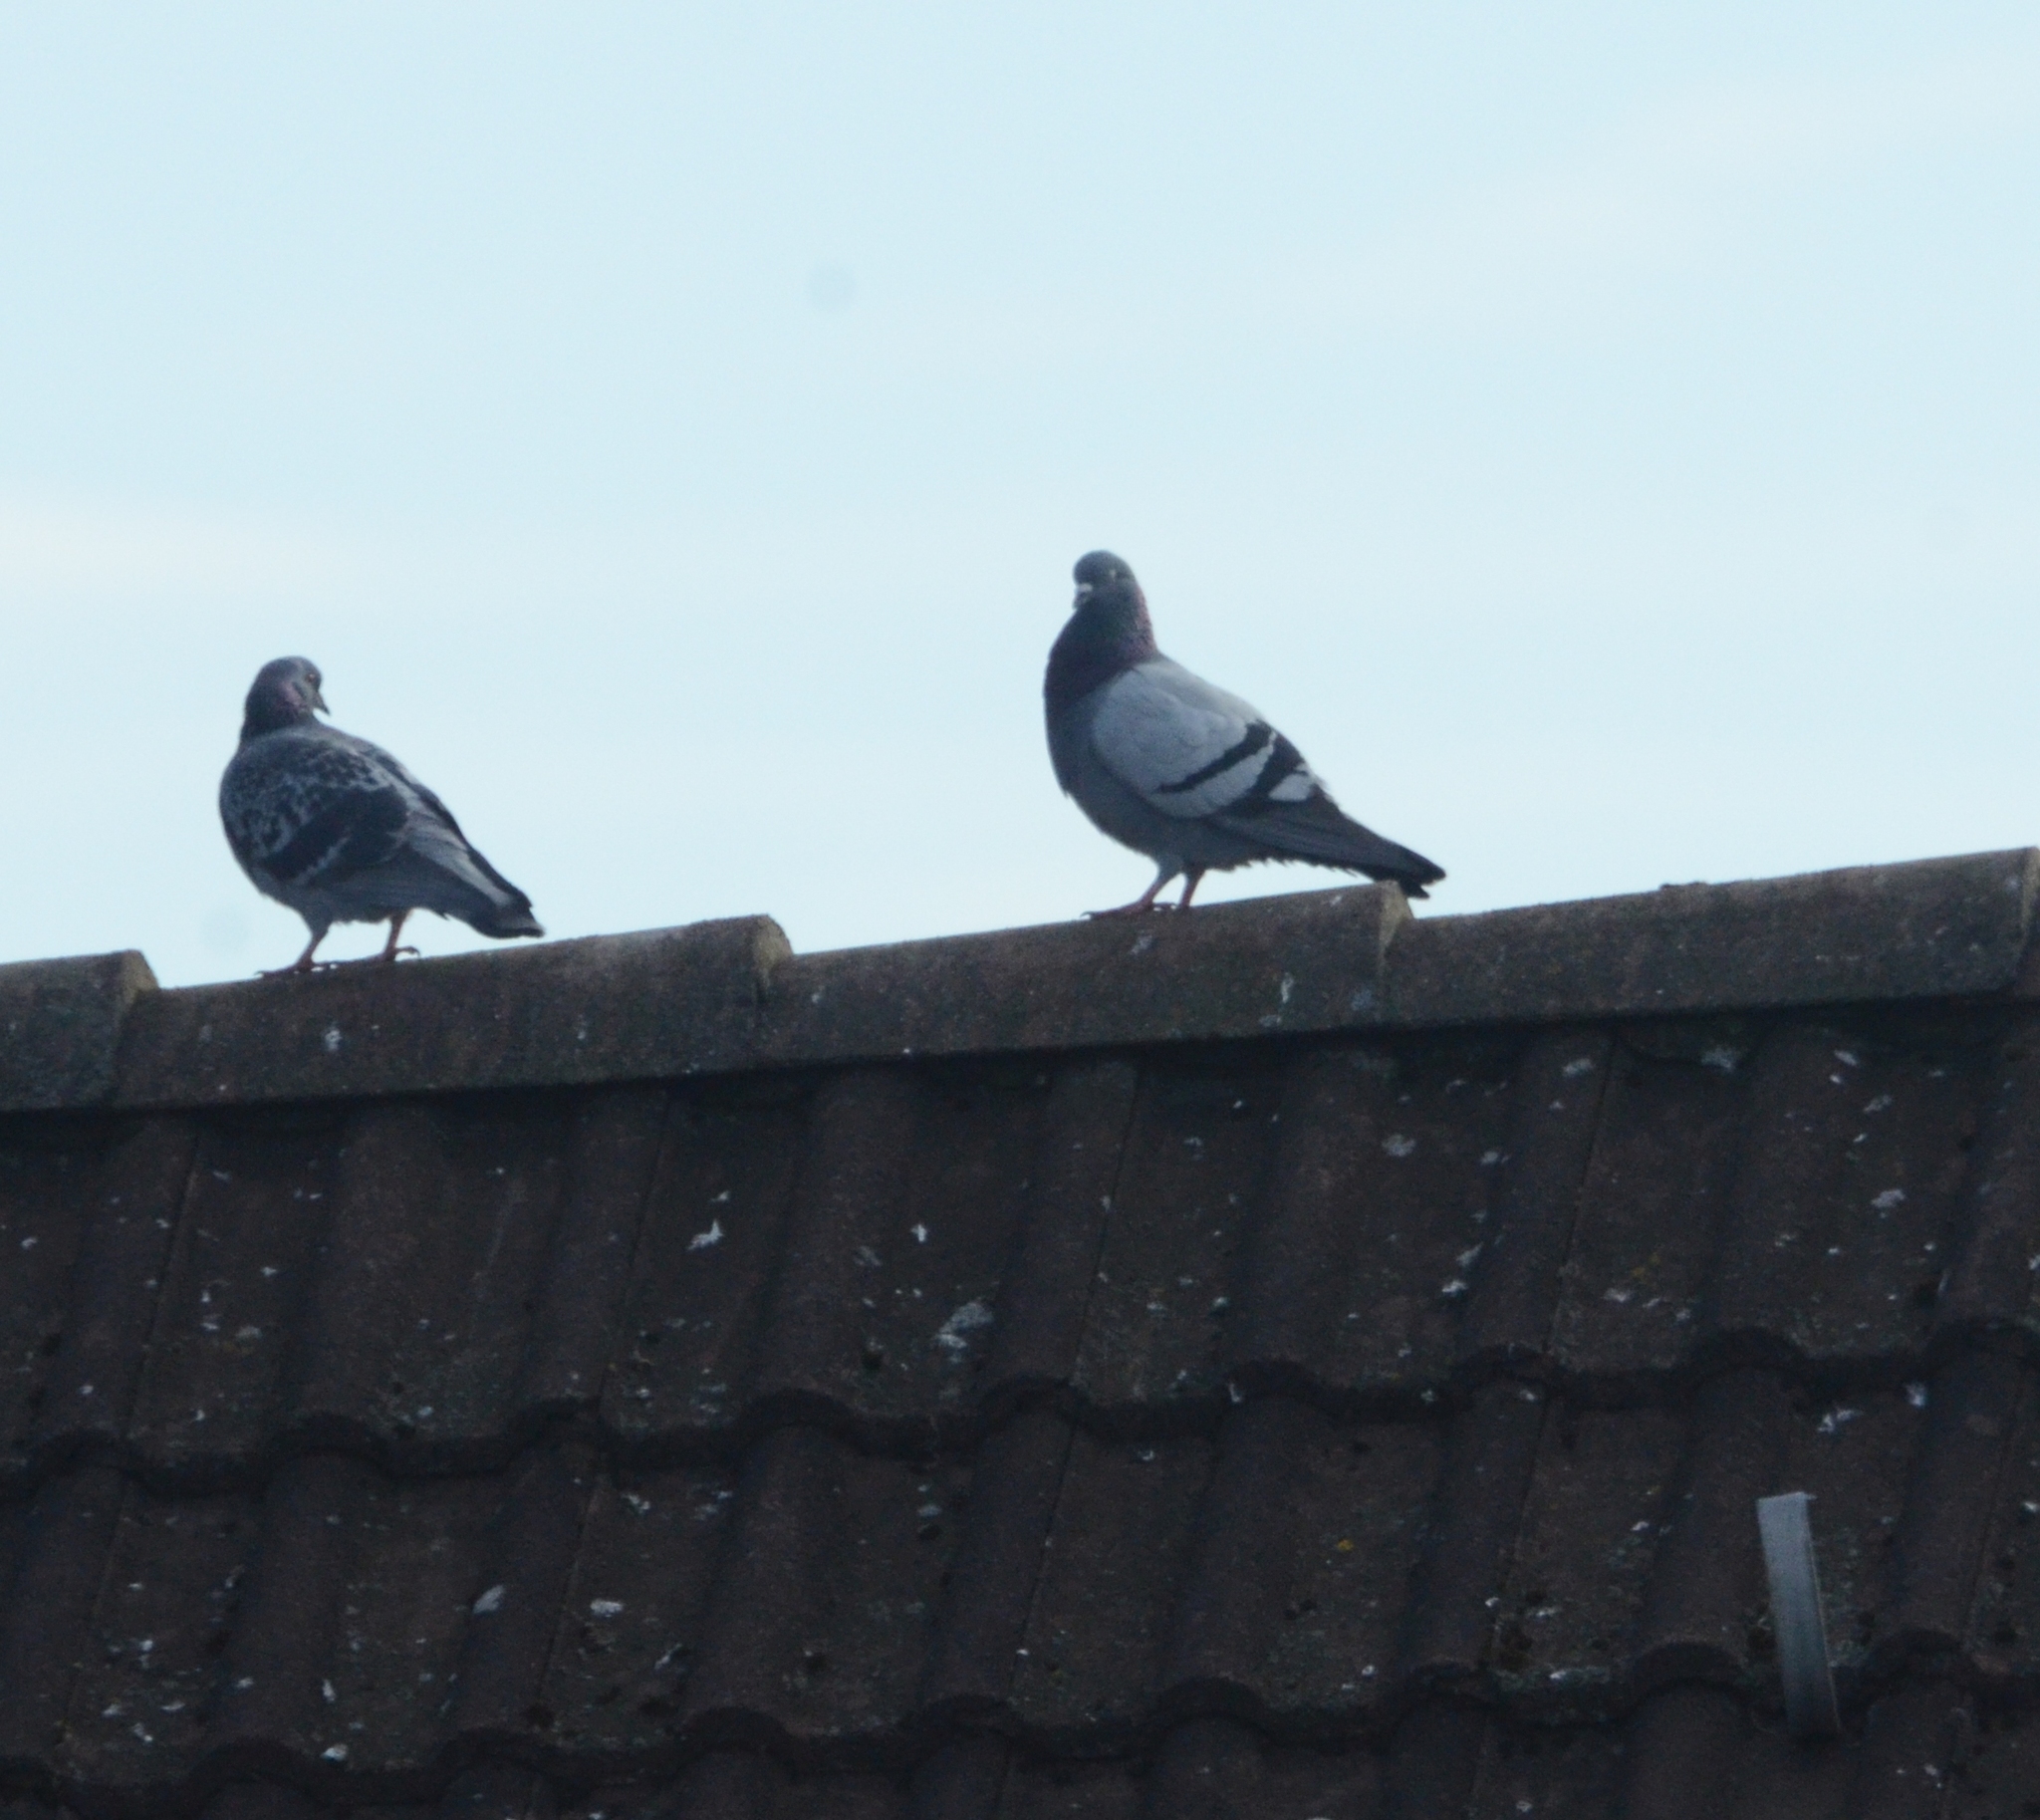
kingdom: Animalia
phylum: Chordata
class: Aves
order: Columbiformes
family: Columbidae
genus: Columba
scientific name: Columba livia
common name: Rock pigeon
